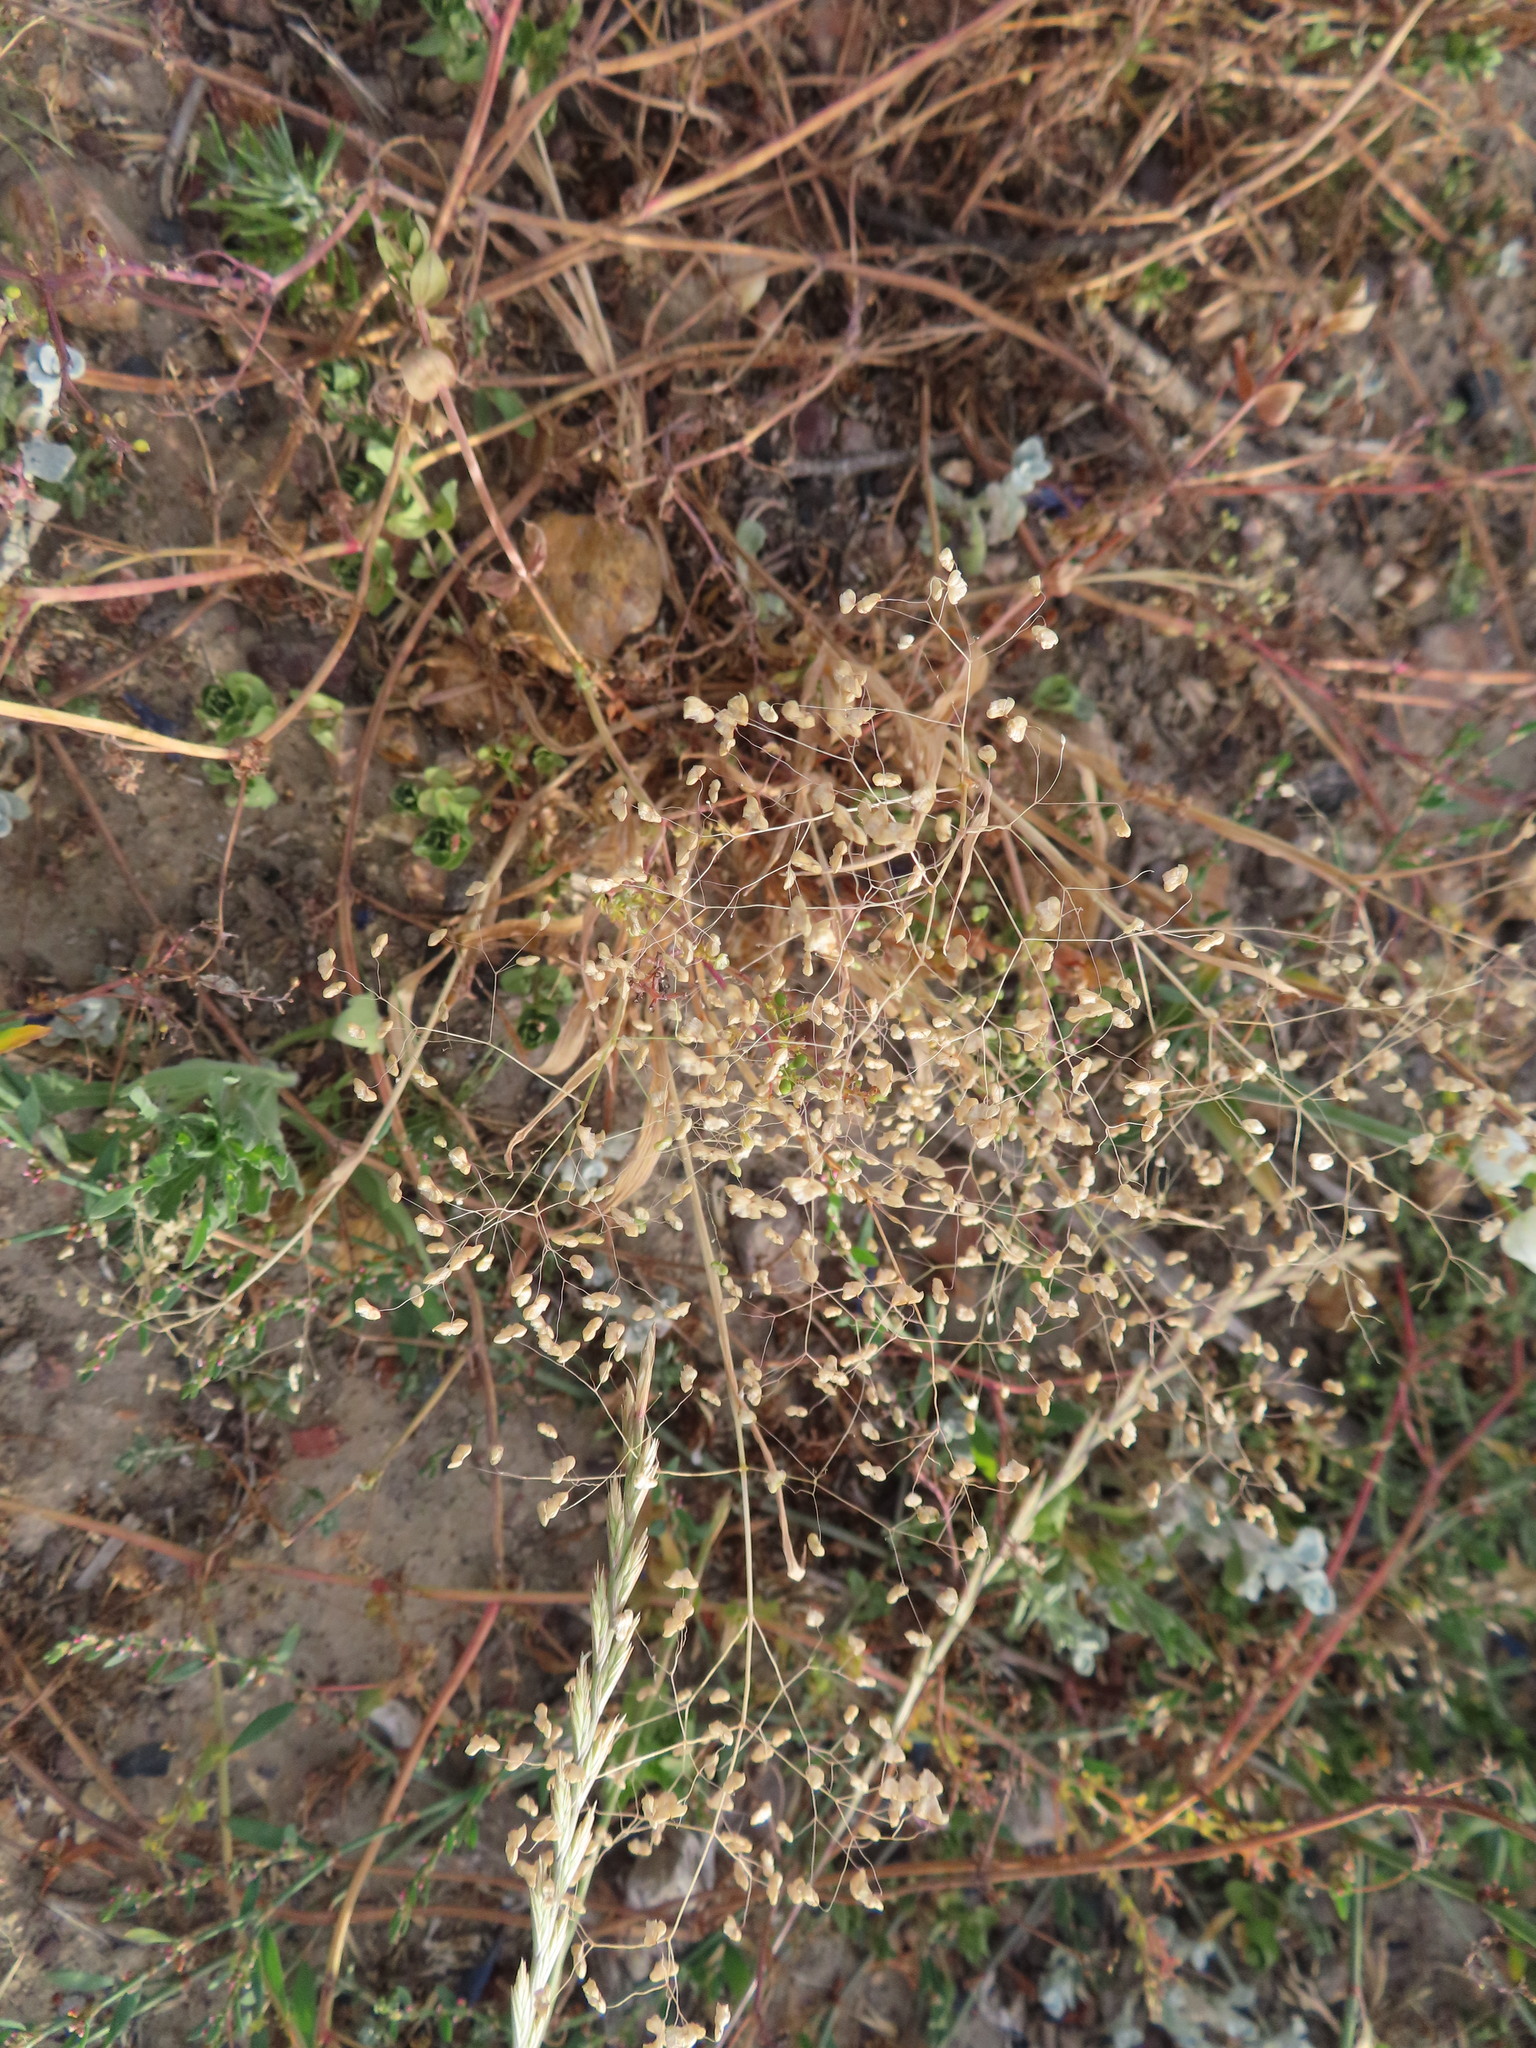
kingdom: Plantae
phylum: Tracheophyta
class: Liliopsida
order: Poales
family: Poaceae
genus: Briza
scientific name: Briza minor
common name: Lesser quaking-grass
